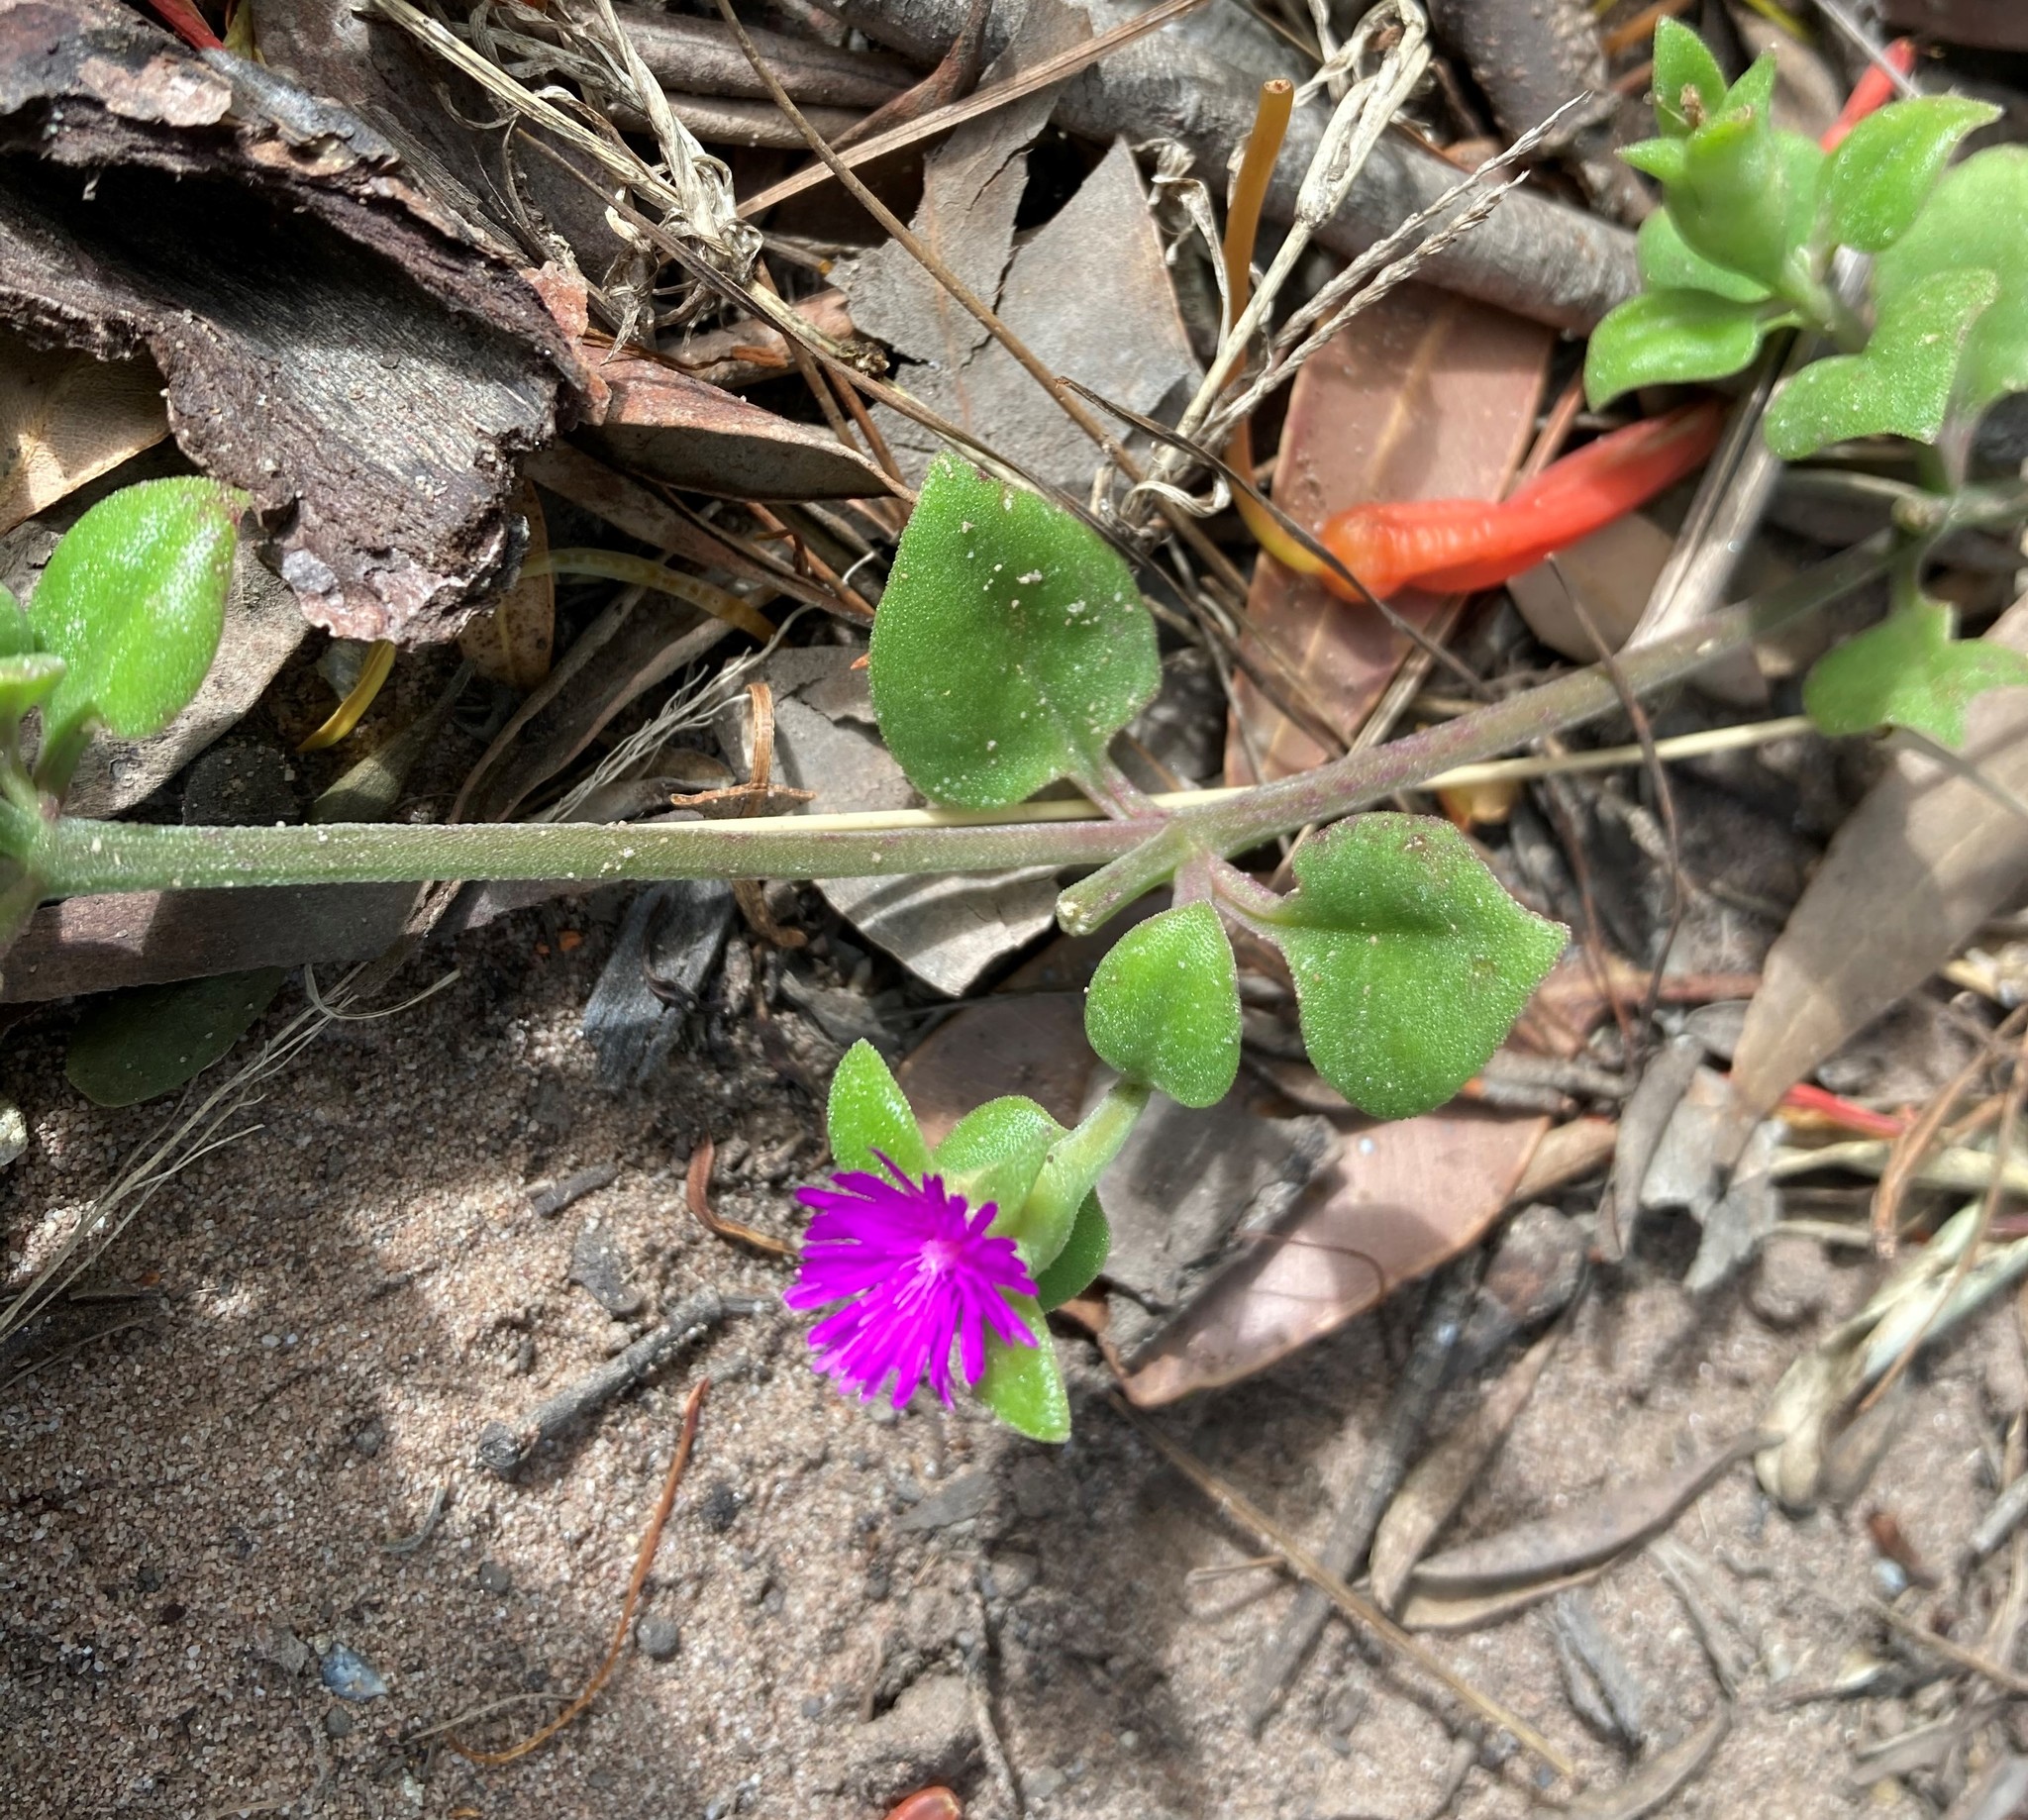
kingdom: Plantae
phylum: Tracheophyta
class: Magnoliopsida
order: Caryophyllales
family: Aizoaceae
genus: Mesembryanthemum
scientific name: Mesembryanthemum cordifolium
